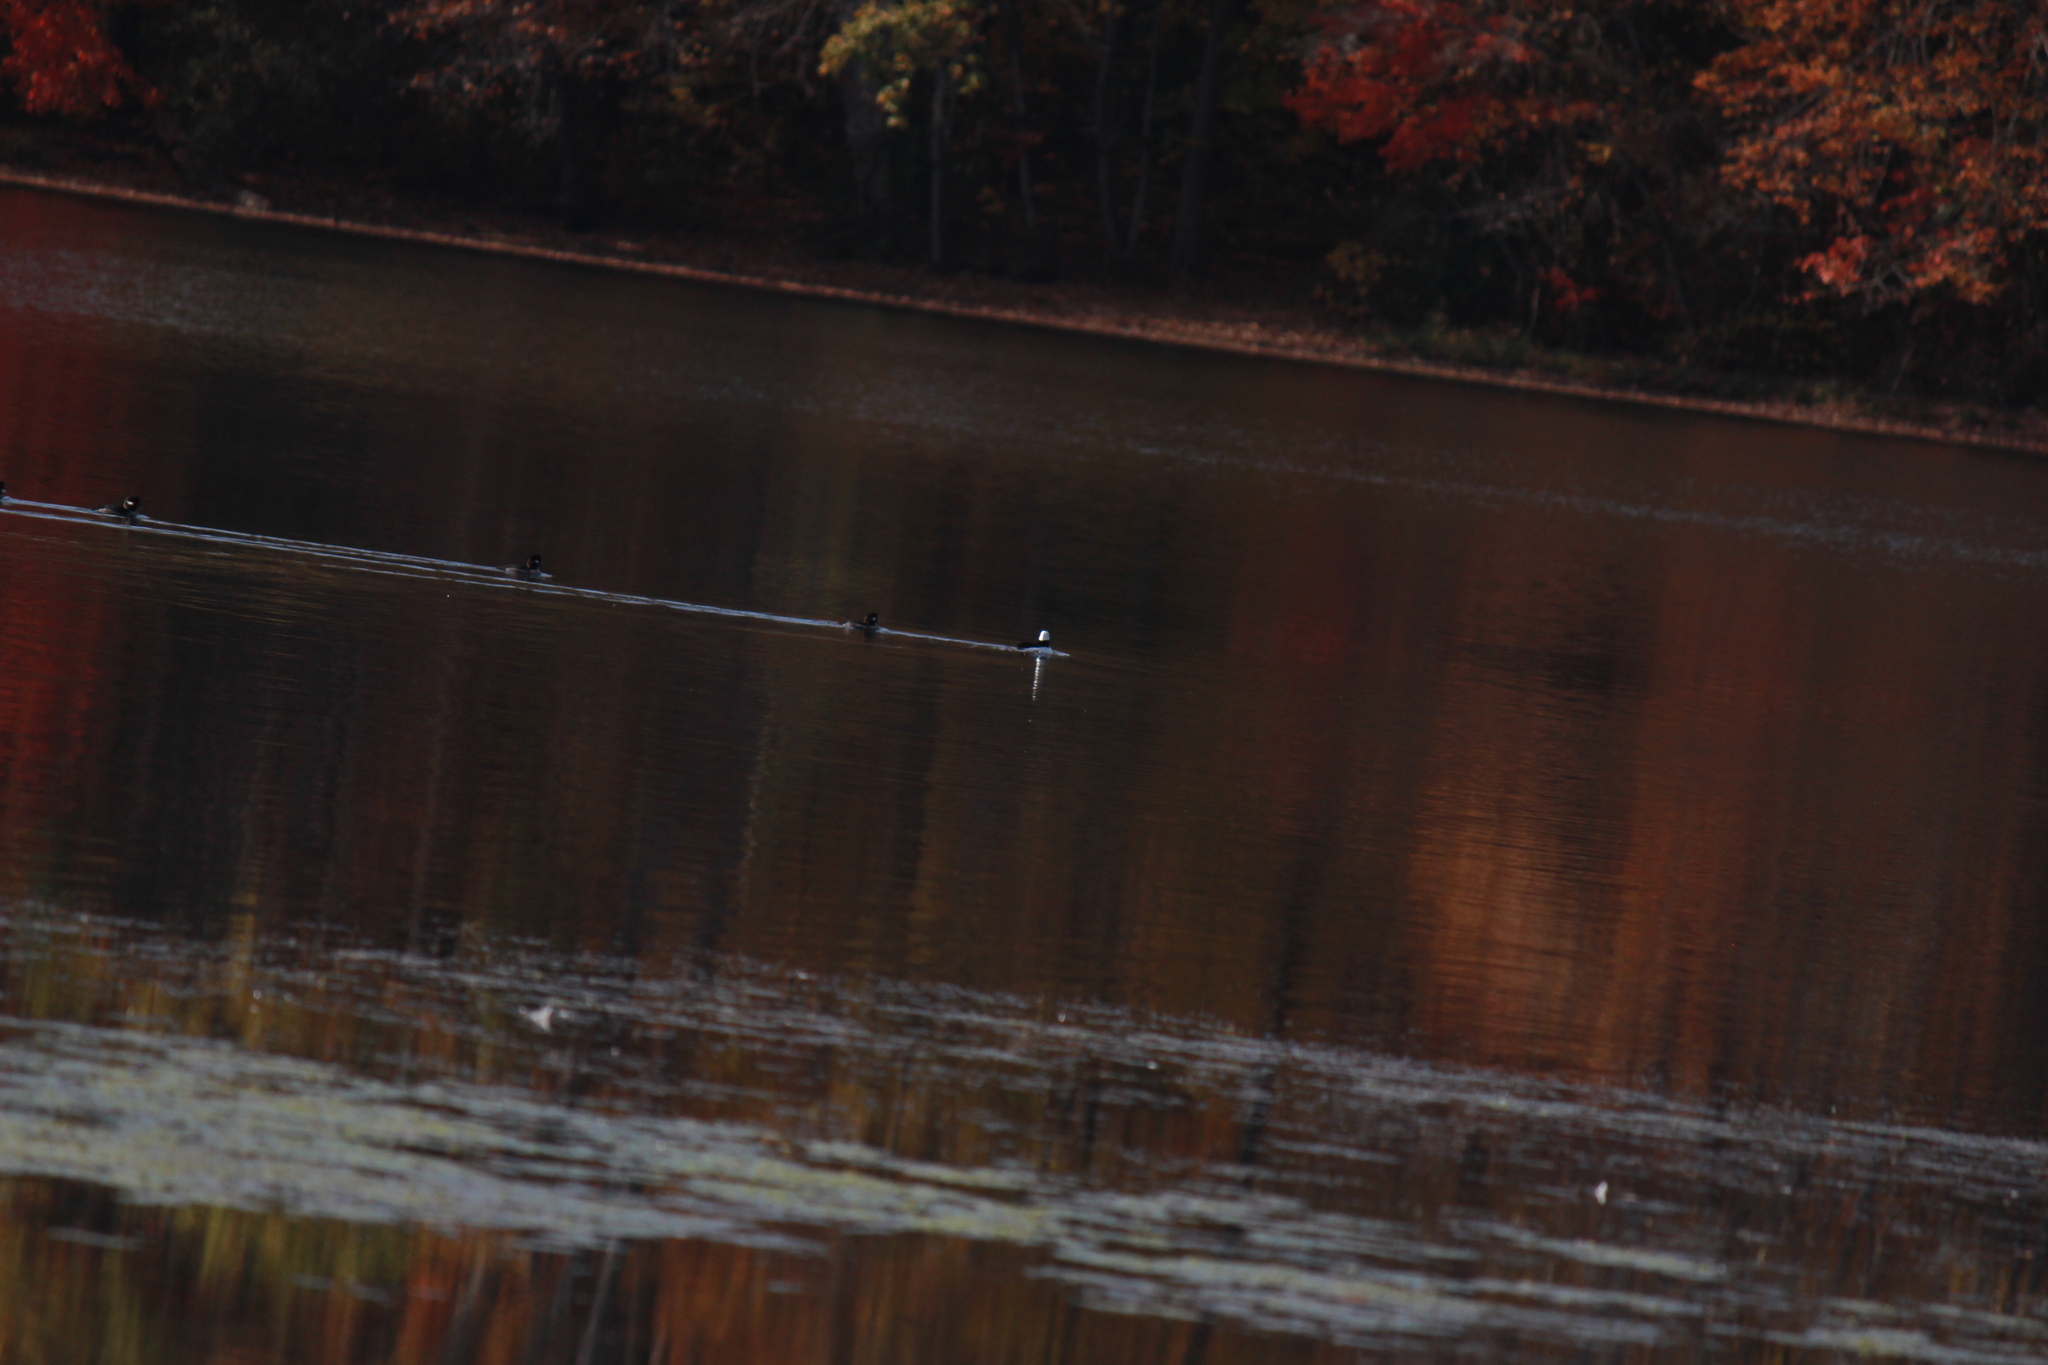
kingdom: Animalia
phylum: Chordata
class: Aves
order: Anseriformes
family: Anatidae
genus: Bucephala
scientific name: Bucephala albeola
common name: Bufflehead
